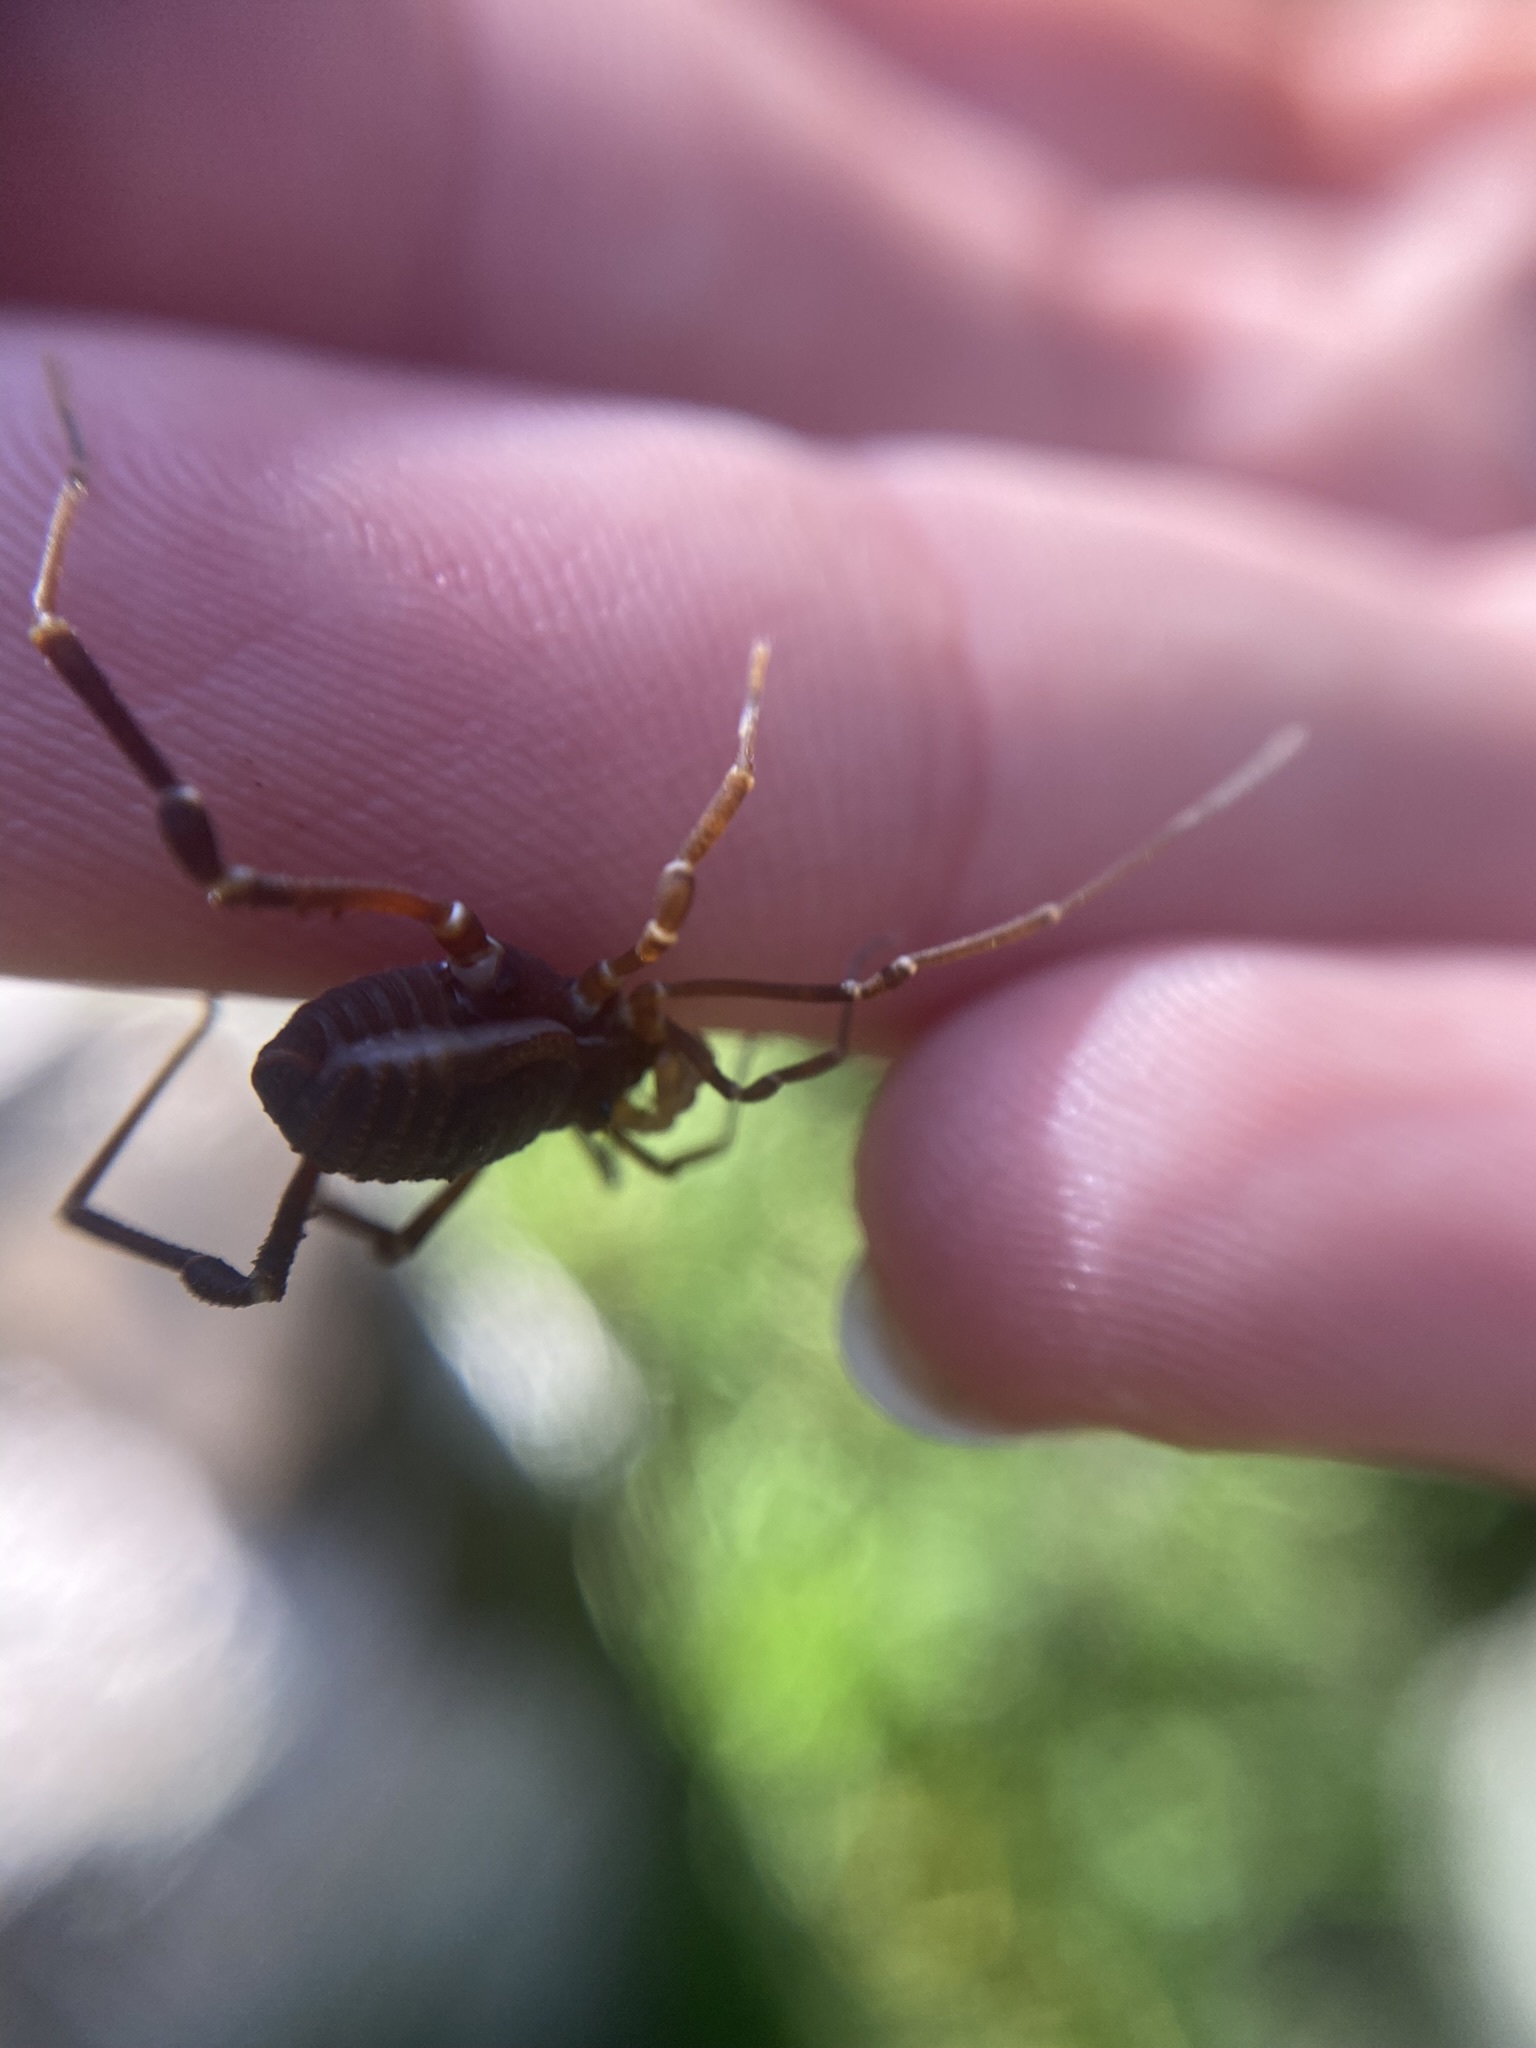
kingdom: Animalia
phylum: Arthropoda
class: Arachnida
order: Opiliones
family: Gonyleptidae
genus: Opisthoplatus
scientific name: Opisthoplatus prospicuus
